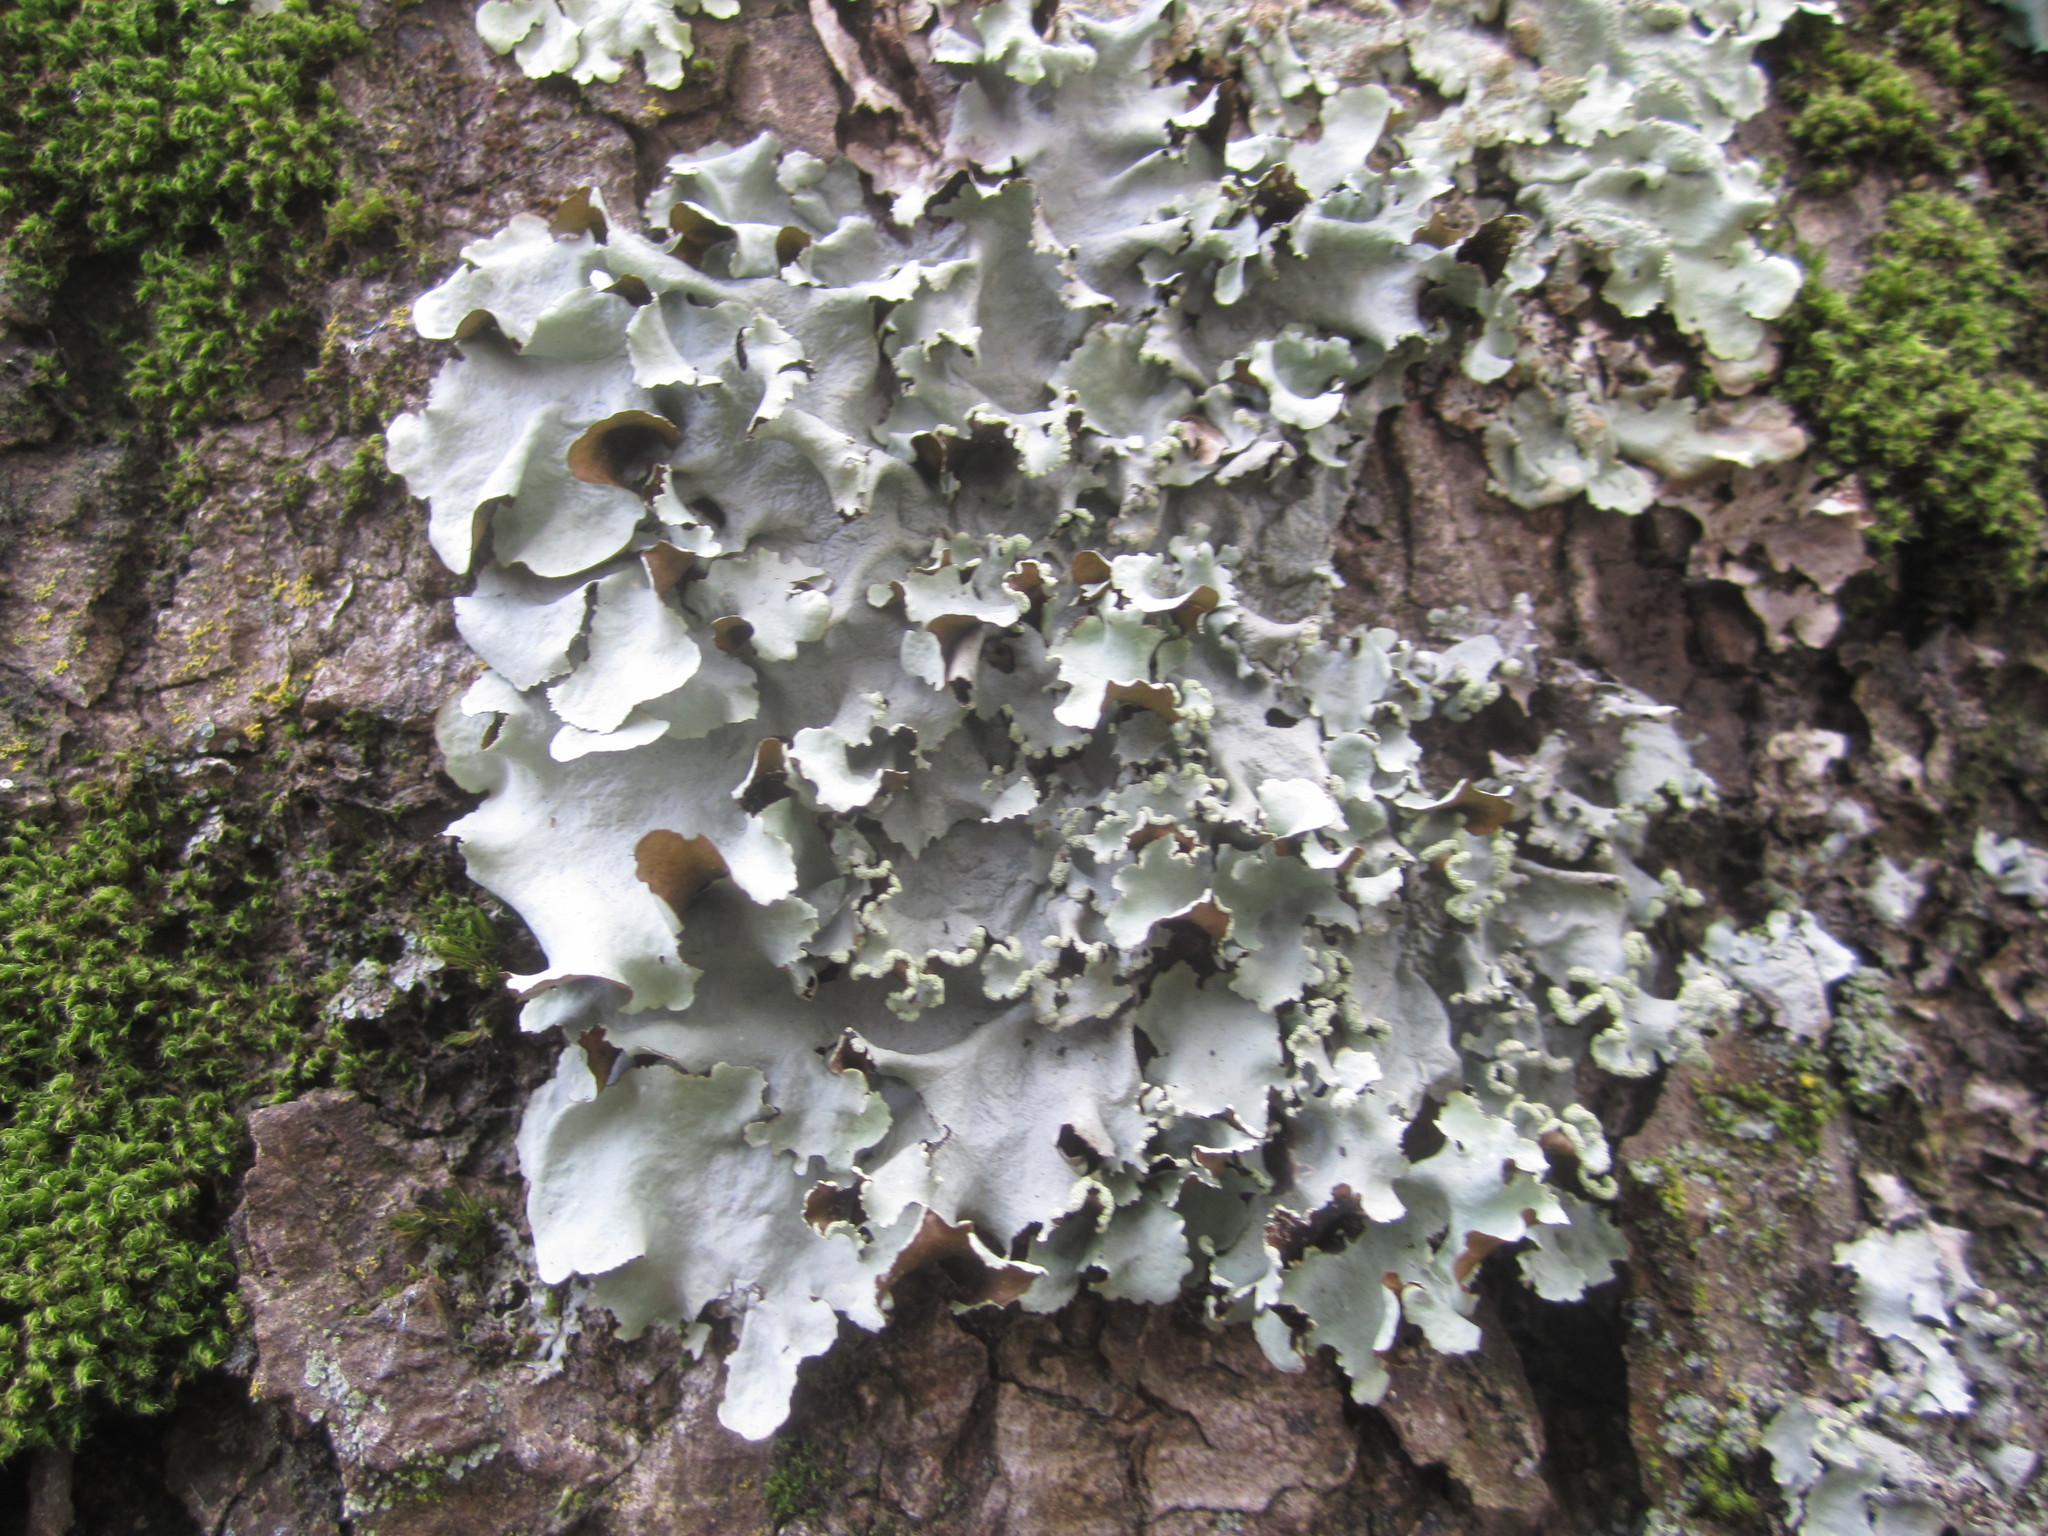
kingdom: Fungi
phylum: Ascomycota
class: Lecanoromycetes
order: Lecanorales
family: Parmeliaceae
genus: Parmotrema
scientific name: Parmotrema perlatum
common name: Black stone flower
